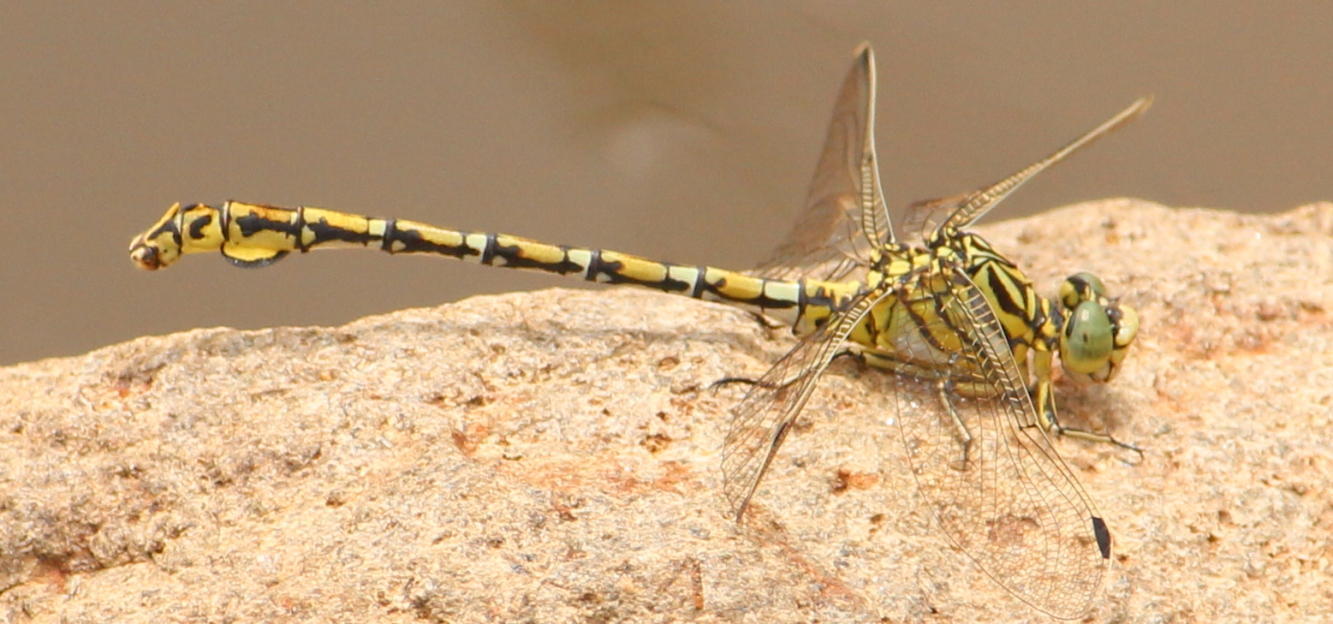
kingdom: Animalia
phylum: Arthropoda
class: Insecta
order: Odonata
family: Gomphidae
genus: Ceratogomphus
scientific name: Ceratogomphus pictus
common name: Common thorntail
